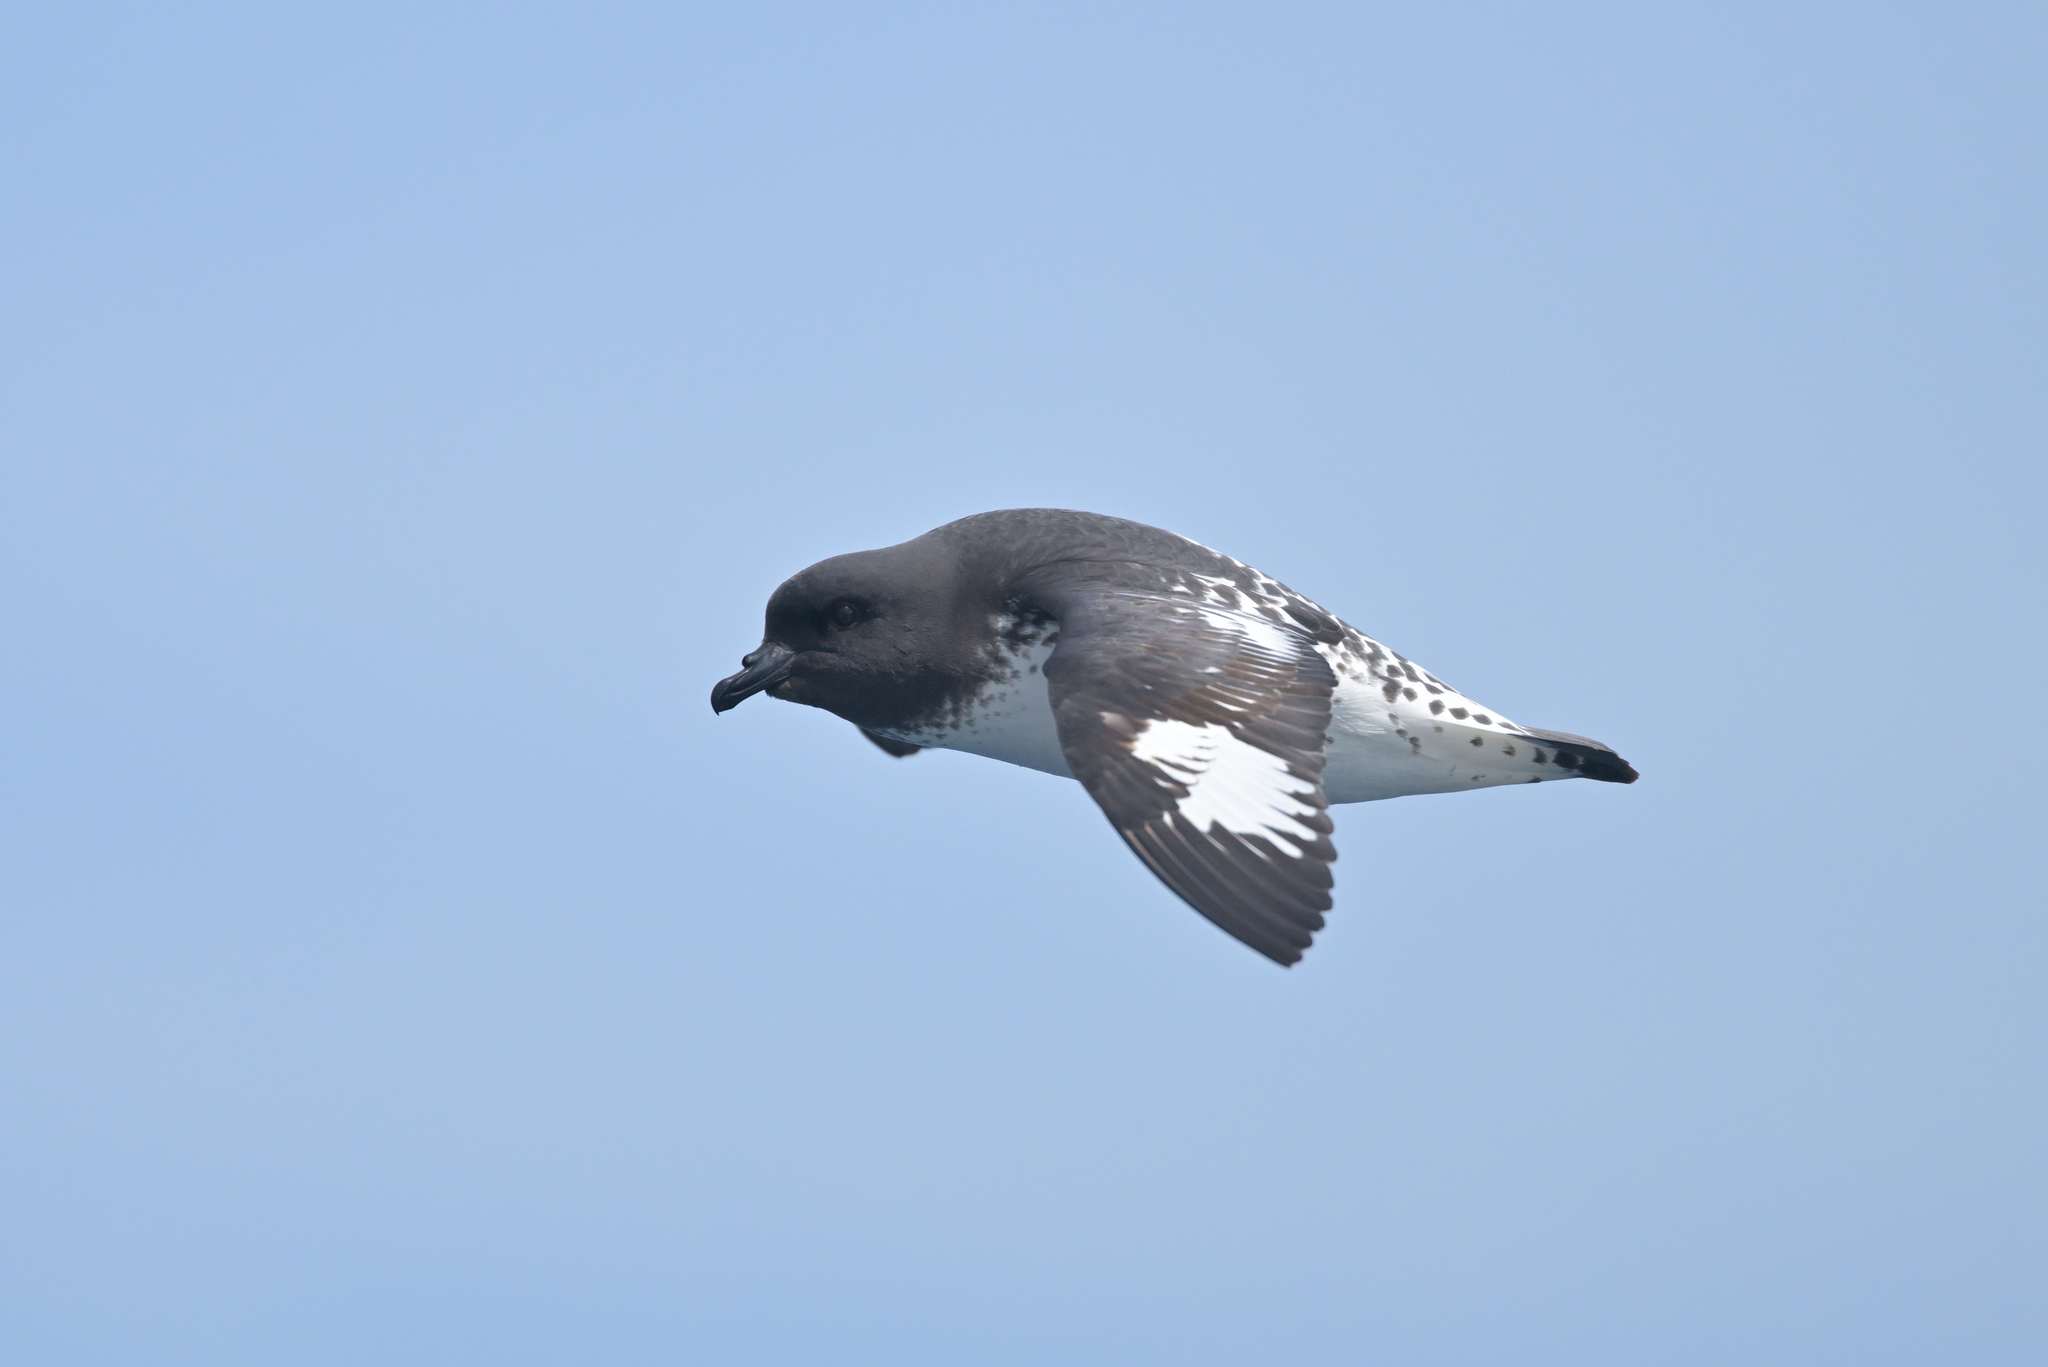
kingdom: Animalia
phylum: Chordata
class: Aves
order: Procellariiformes
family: Procellariidae
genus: Daption
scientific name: Daption capense
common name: Cape petrel
